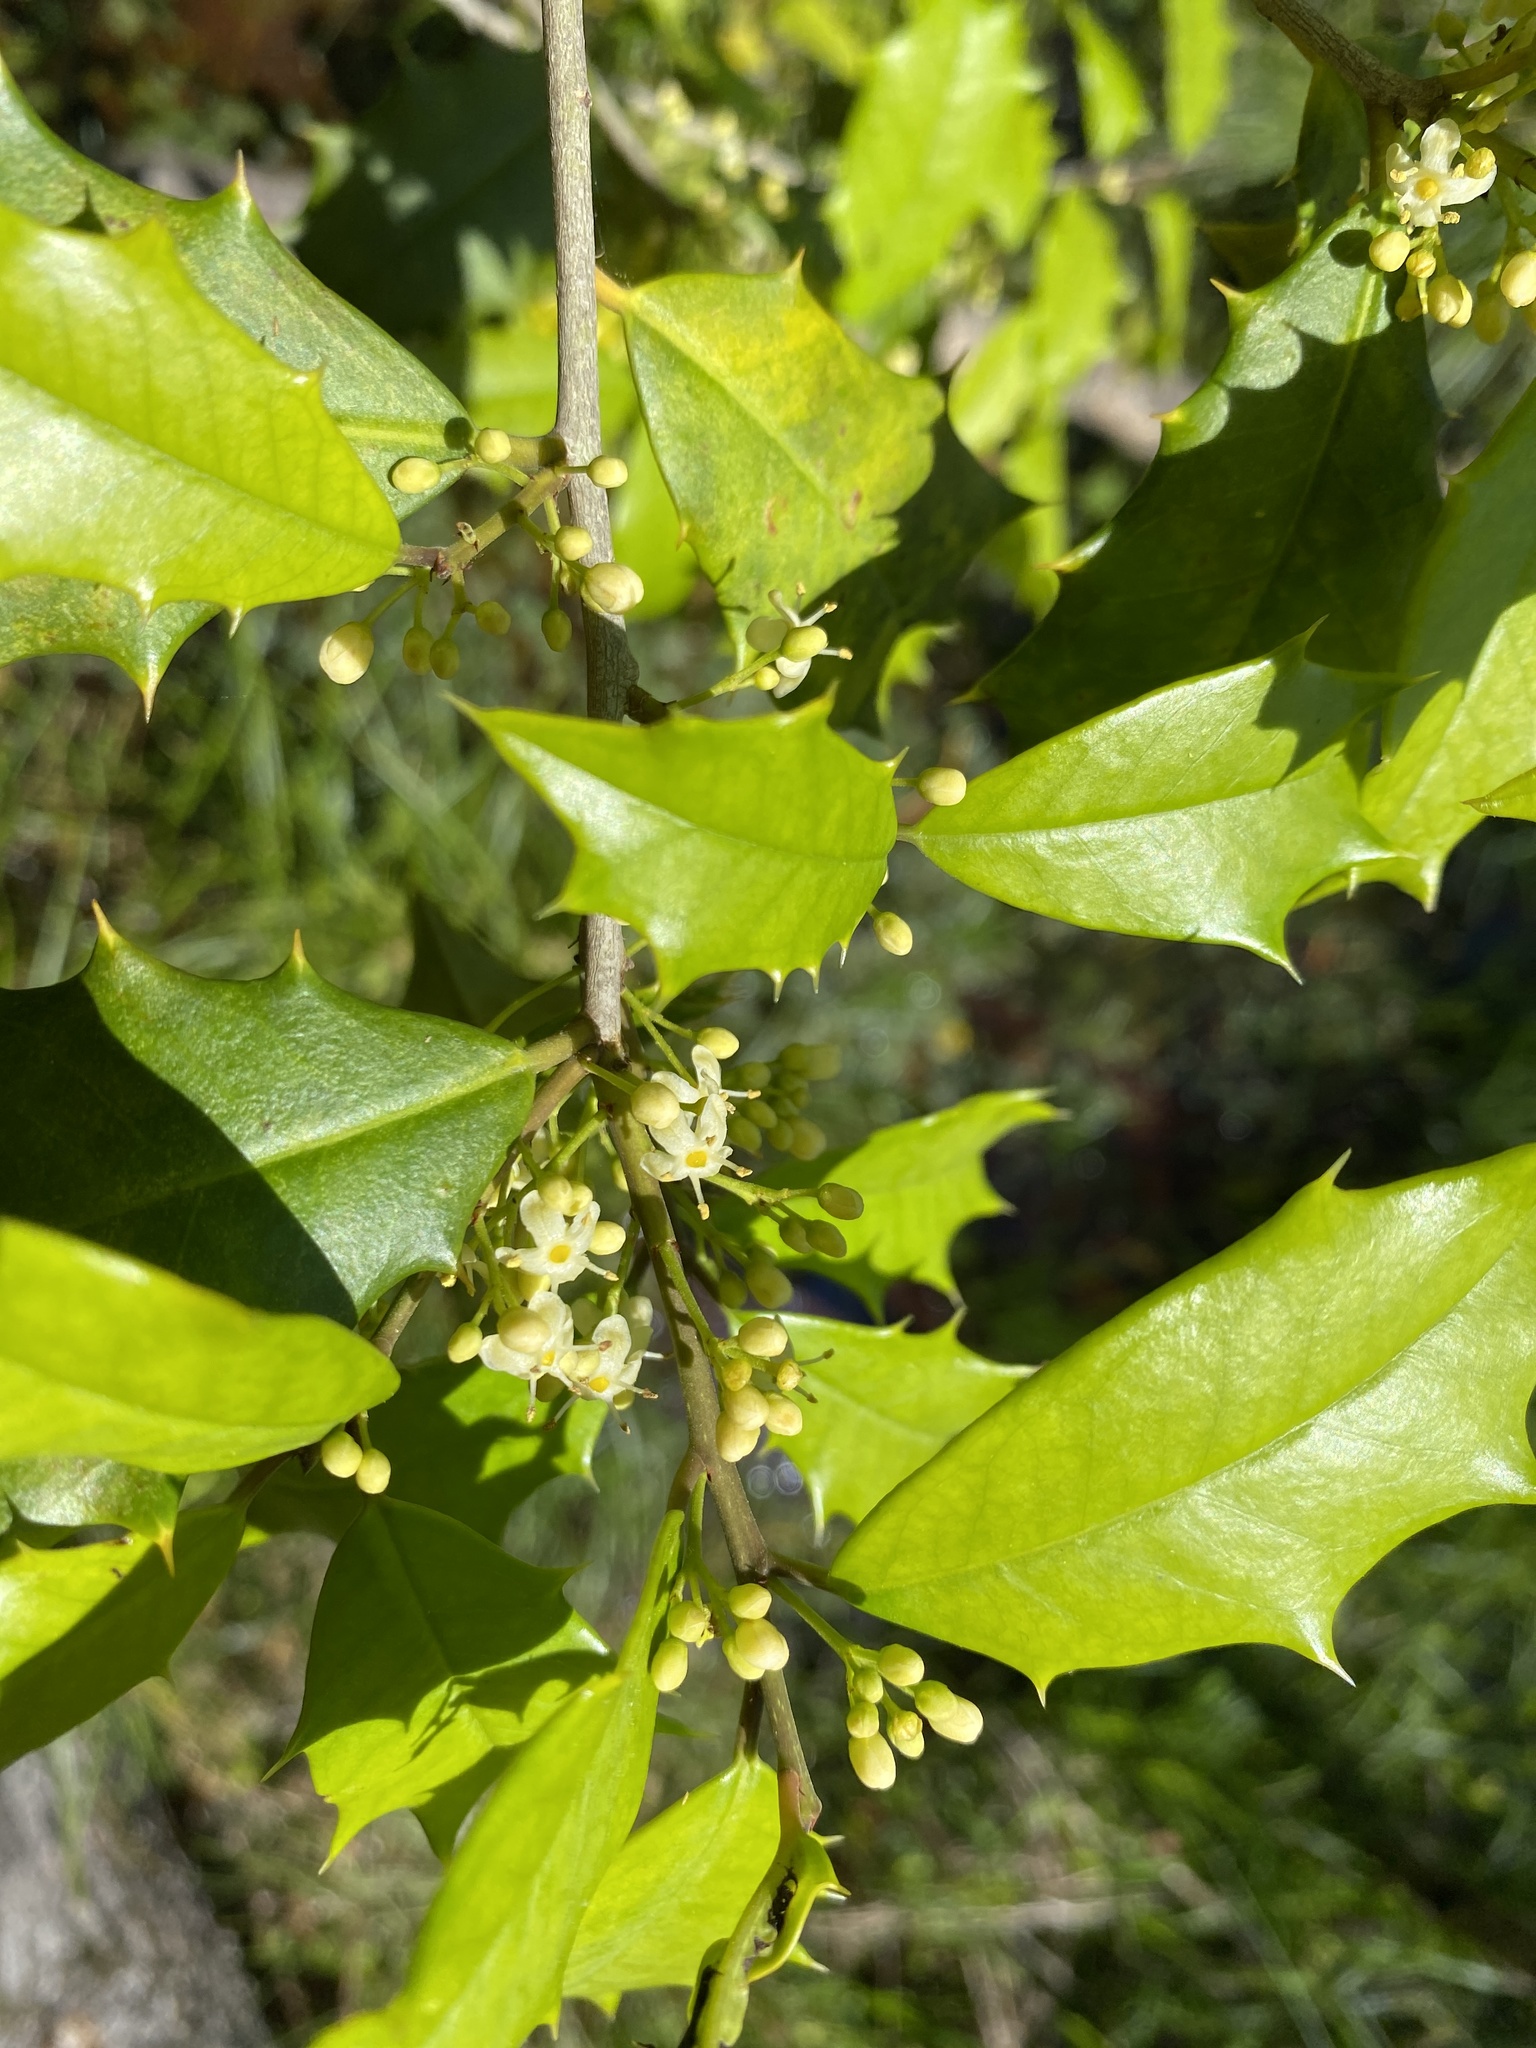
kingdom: Plantae
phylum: Tracheophyta
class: Magnoliopsida
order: Aquifoliales
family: Aquifoliaceae
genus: Ilex
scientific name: Ilex opaca
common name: American holly
